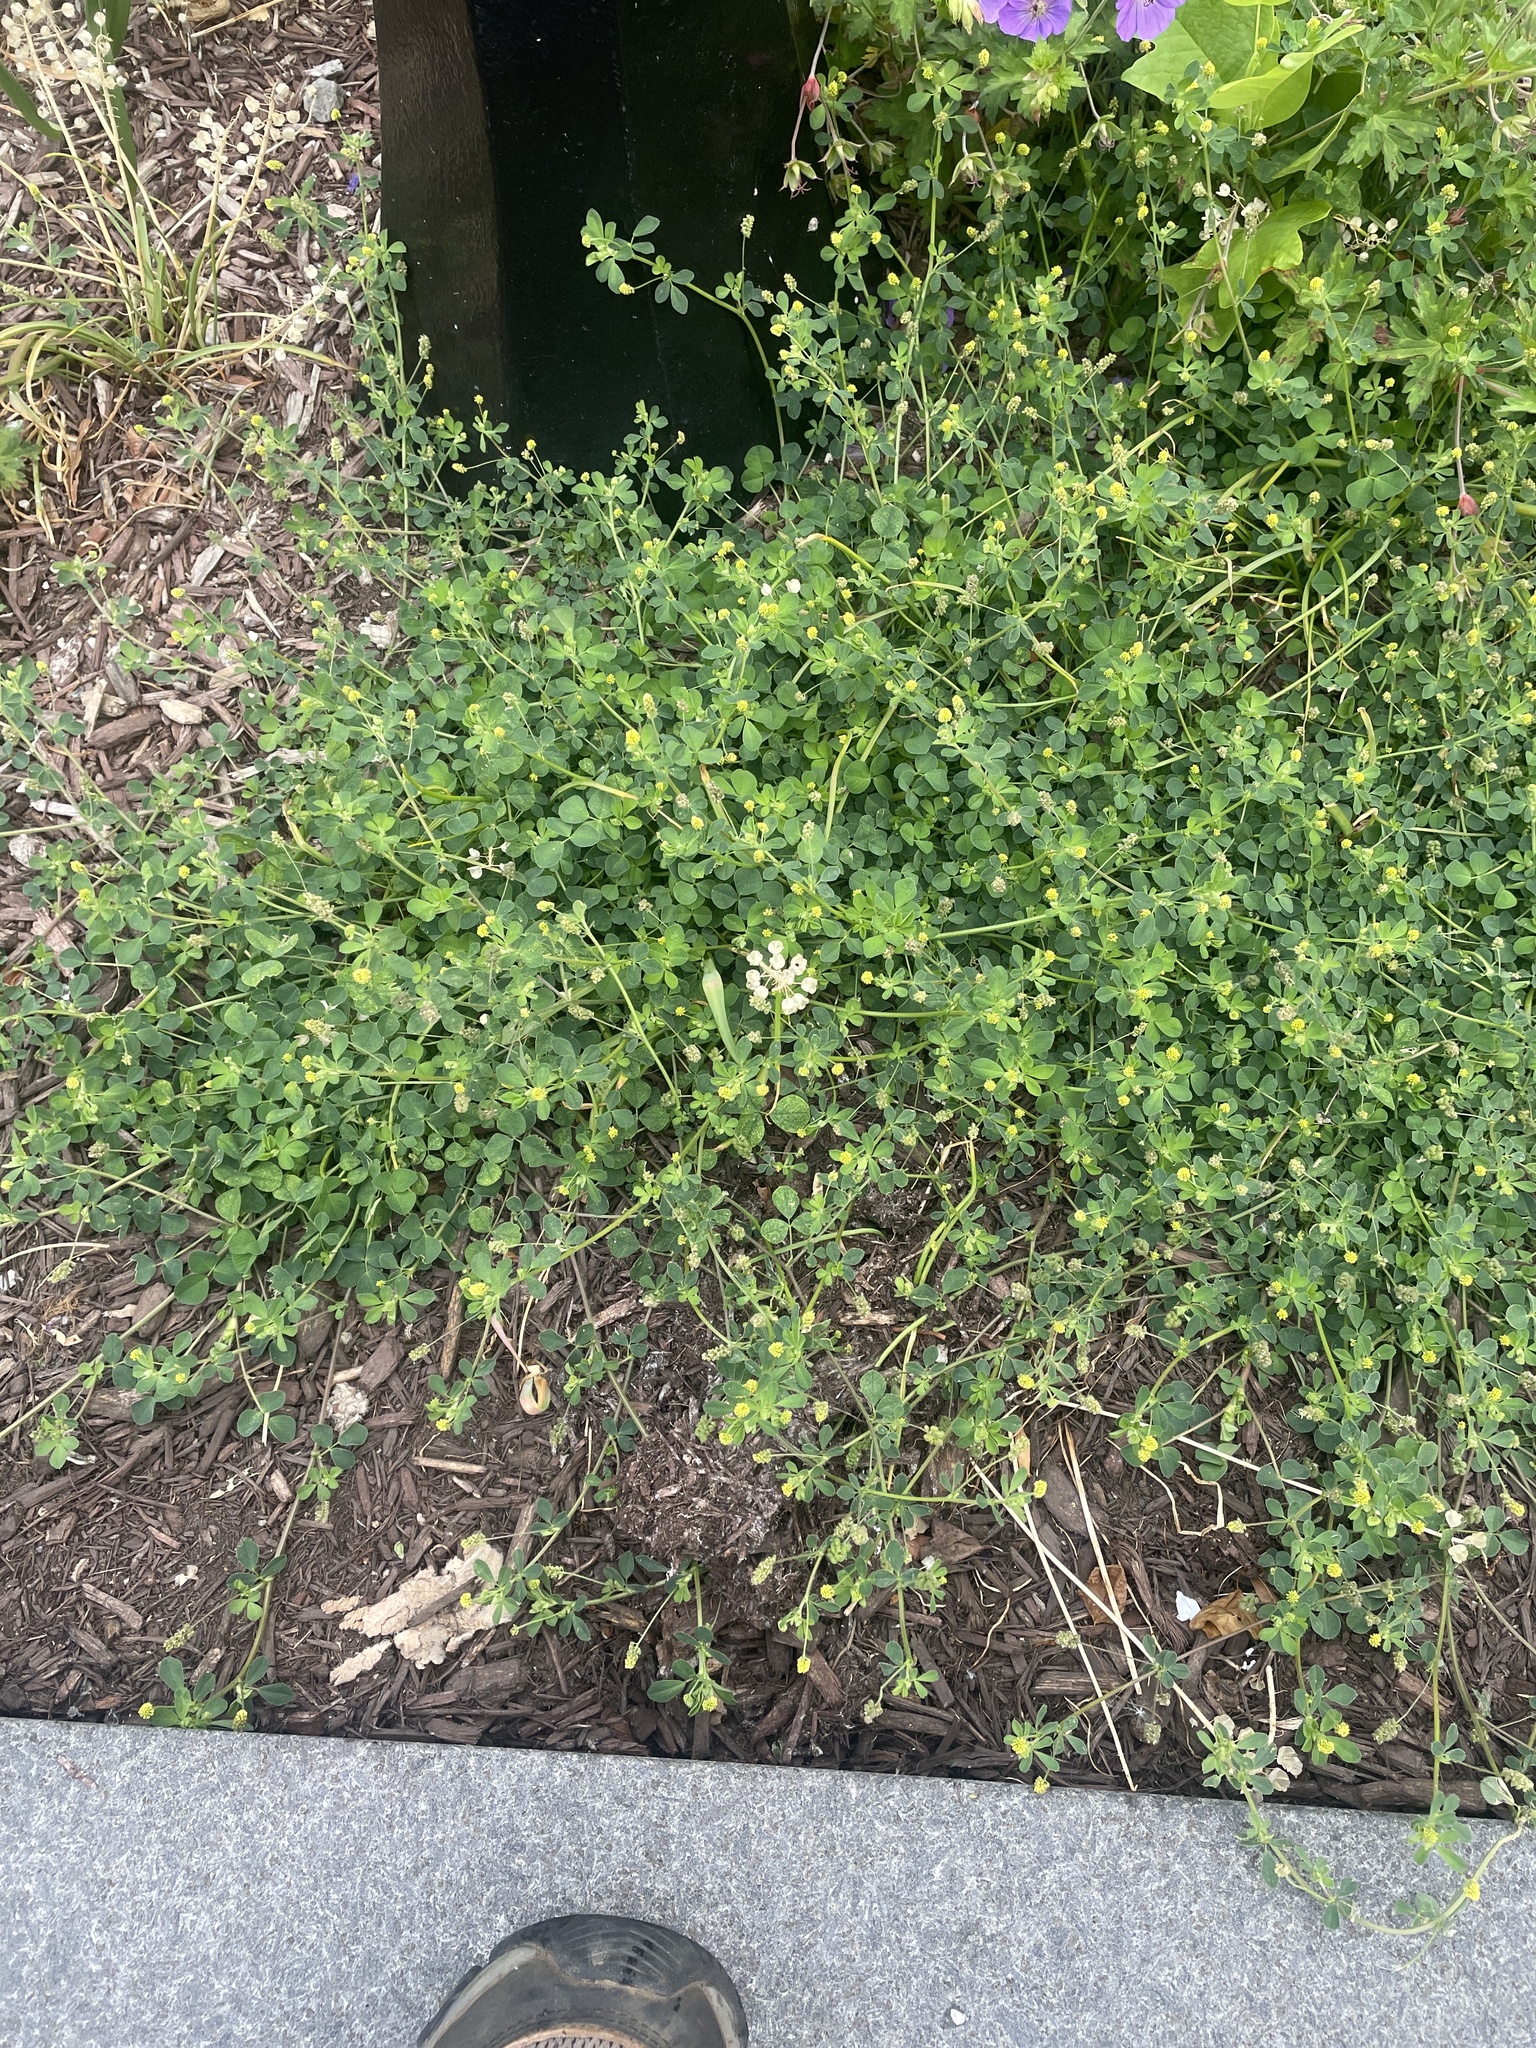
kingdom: Plantae
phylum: Tracheophyta
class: Magnoliopsida
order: Fabales
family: Fabaceae
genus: Medicago
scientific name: Medicago lupulina
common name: Black medick
